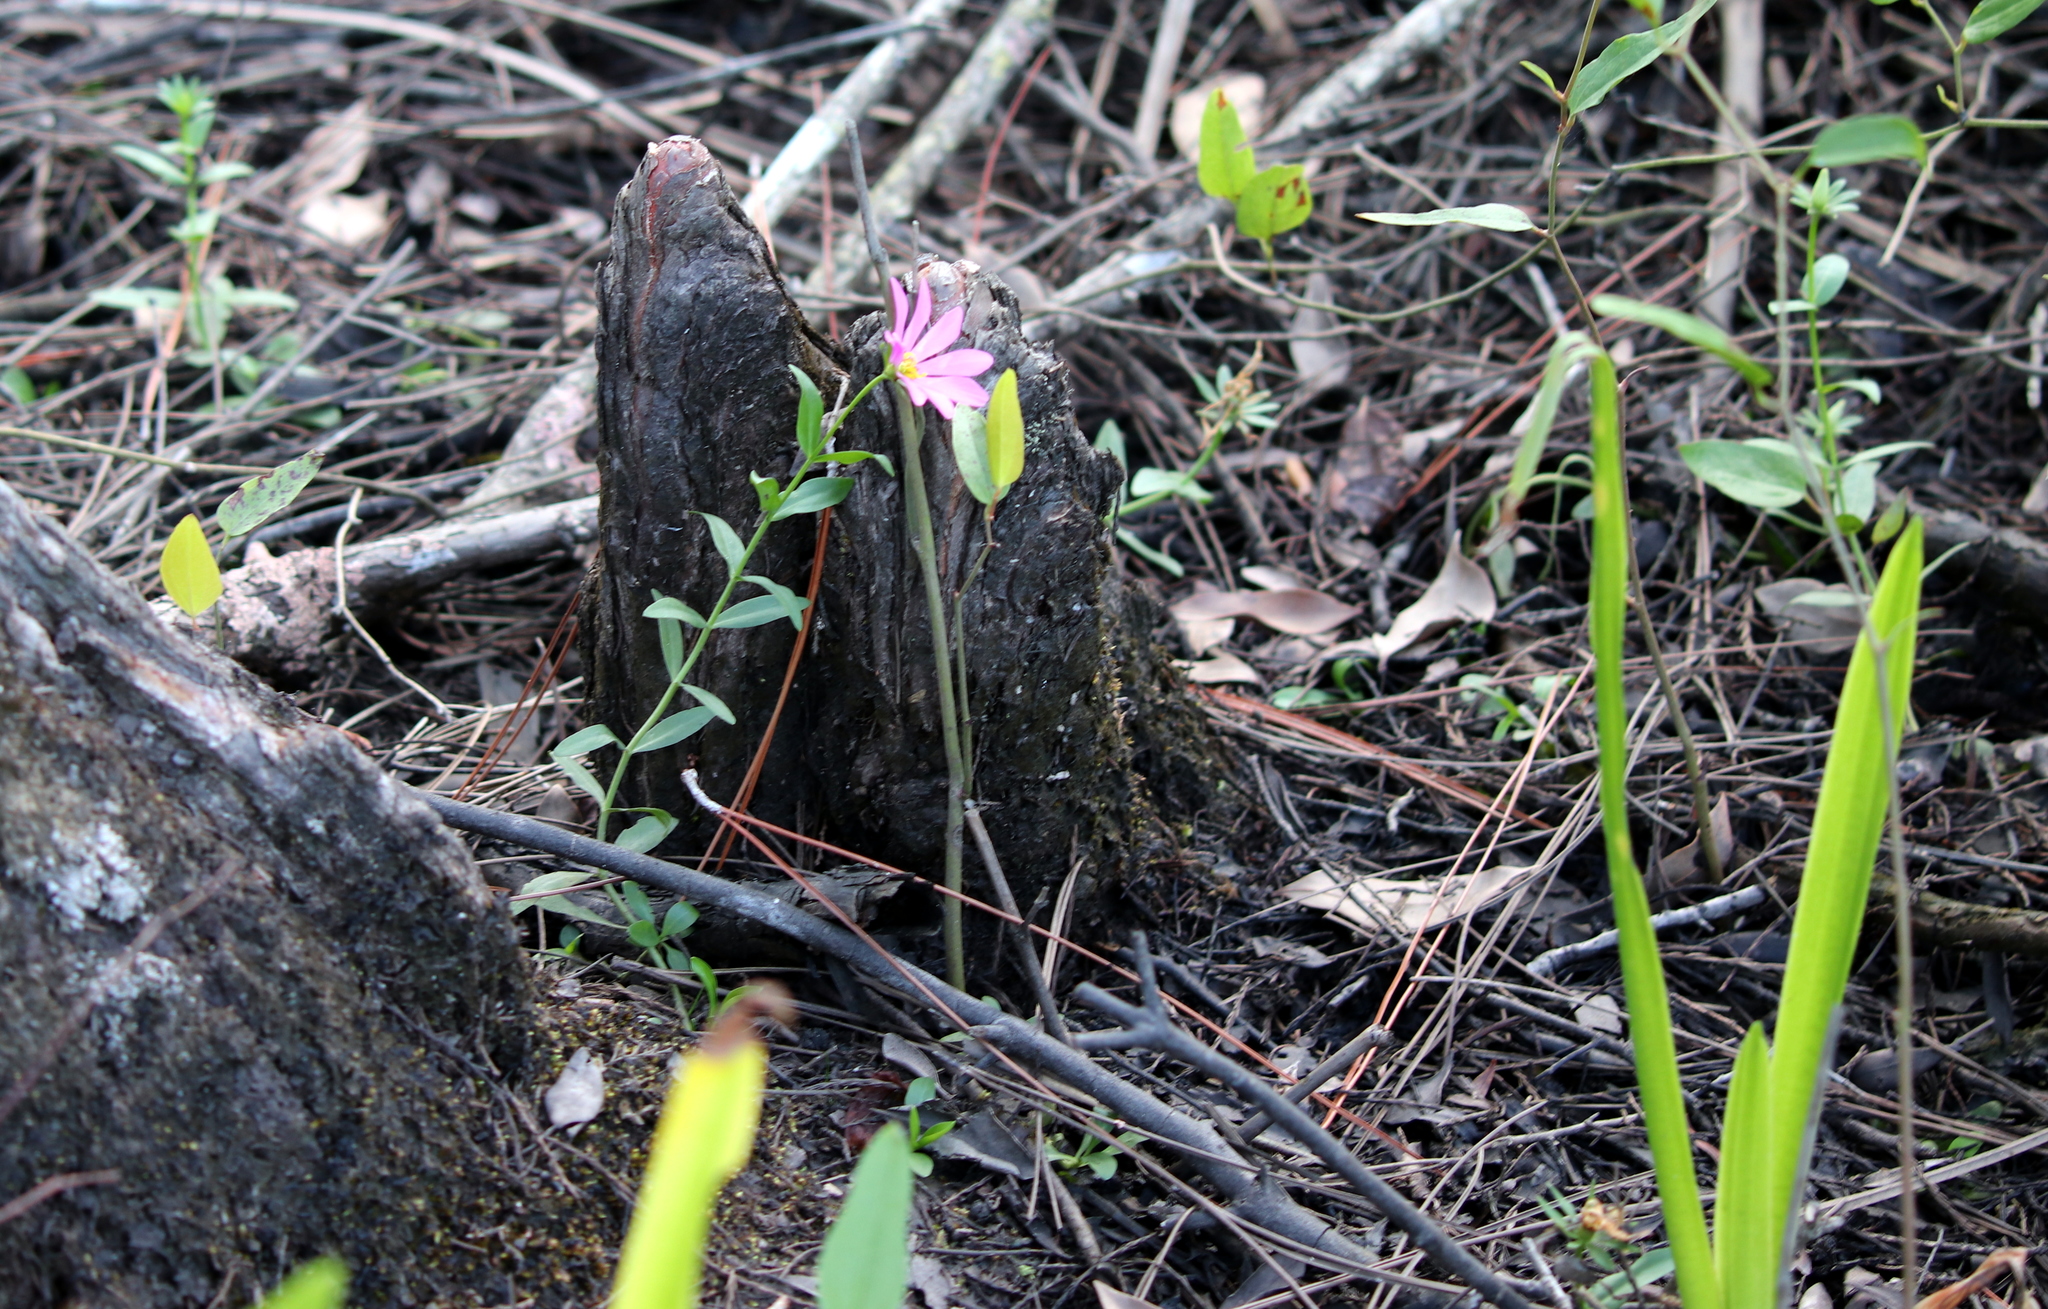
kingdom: Plantae
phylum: Tracheophyta
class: Magnoliopsida
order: Gentianales
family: Gentianaceae
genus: Sabatia
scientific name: Sabatia foliosa
